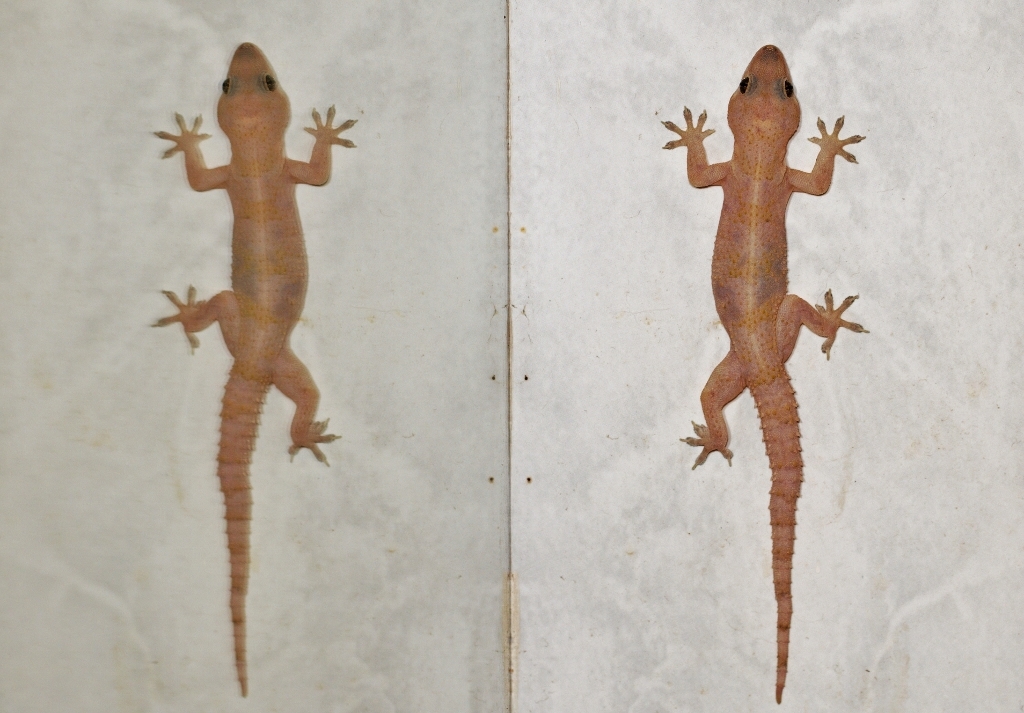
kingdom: Animalia
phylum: Chordata
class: Squamata
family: Gekkonidae
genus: Hemidactylus
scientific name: Hemidactylus mabouia
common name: House gecko
